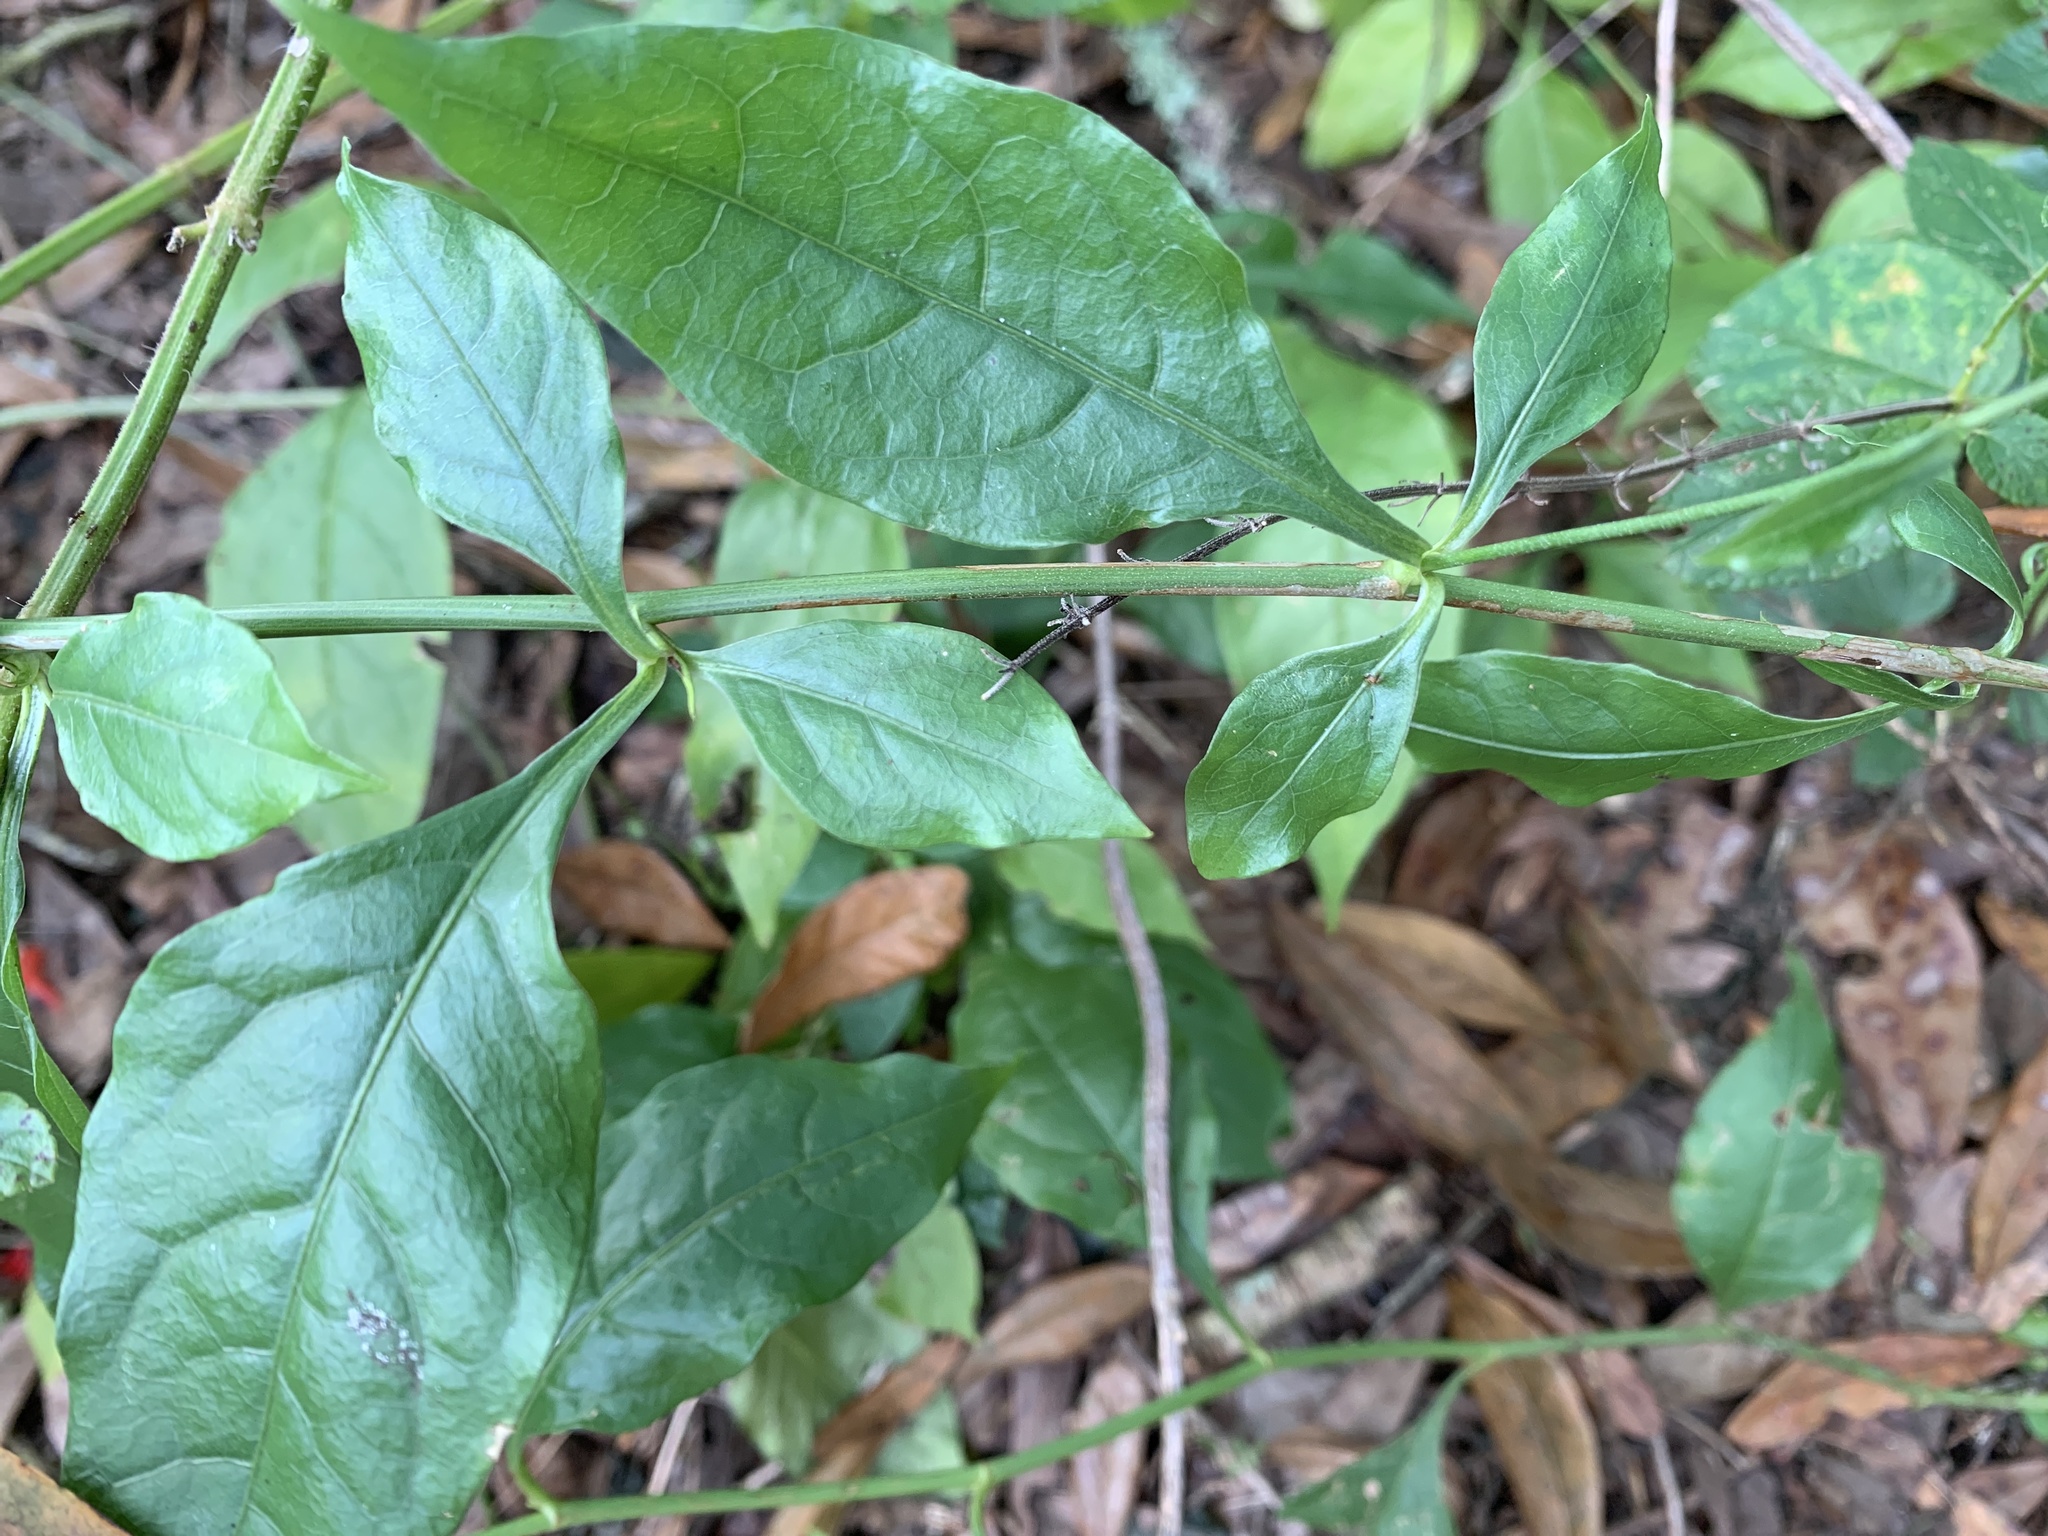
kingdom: Plantae
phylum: Tracheophyta
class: Magnoliopsida
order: Caryophyllales
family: Plumbaginaceae
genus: Plumbago
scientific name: Plumbago zeylanica
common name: Doctorbush
